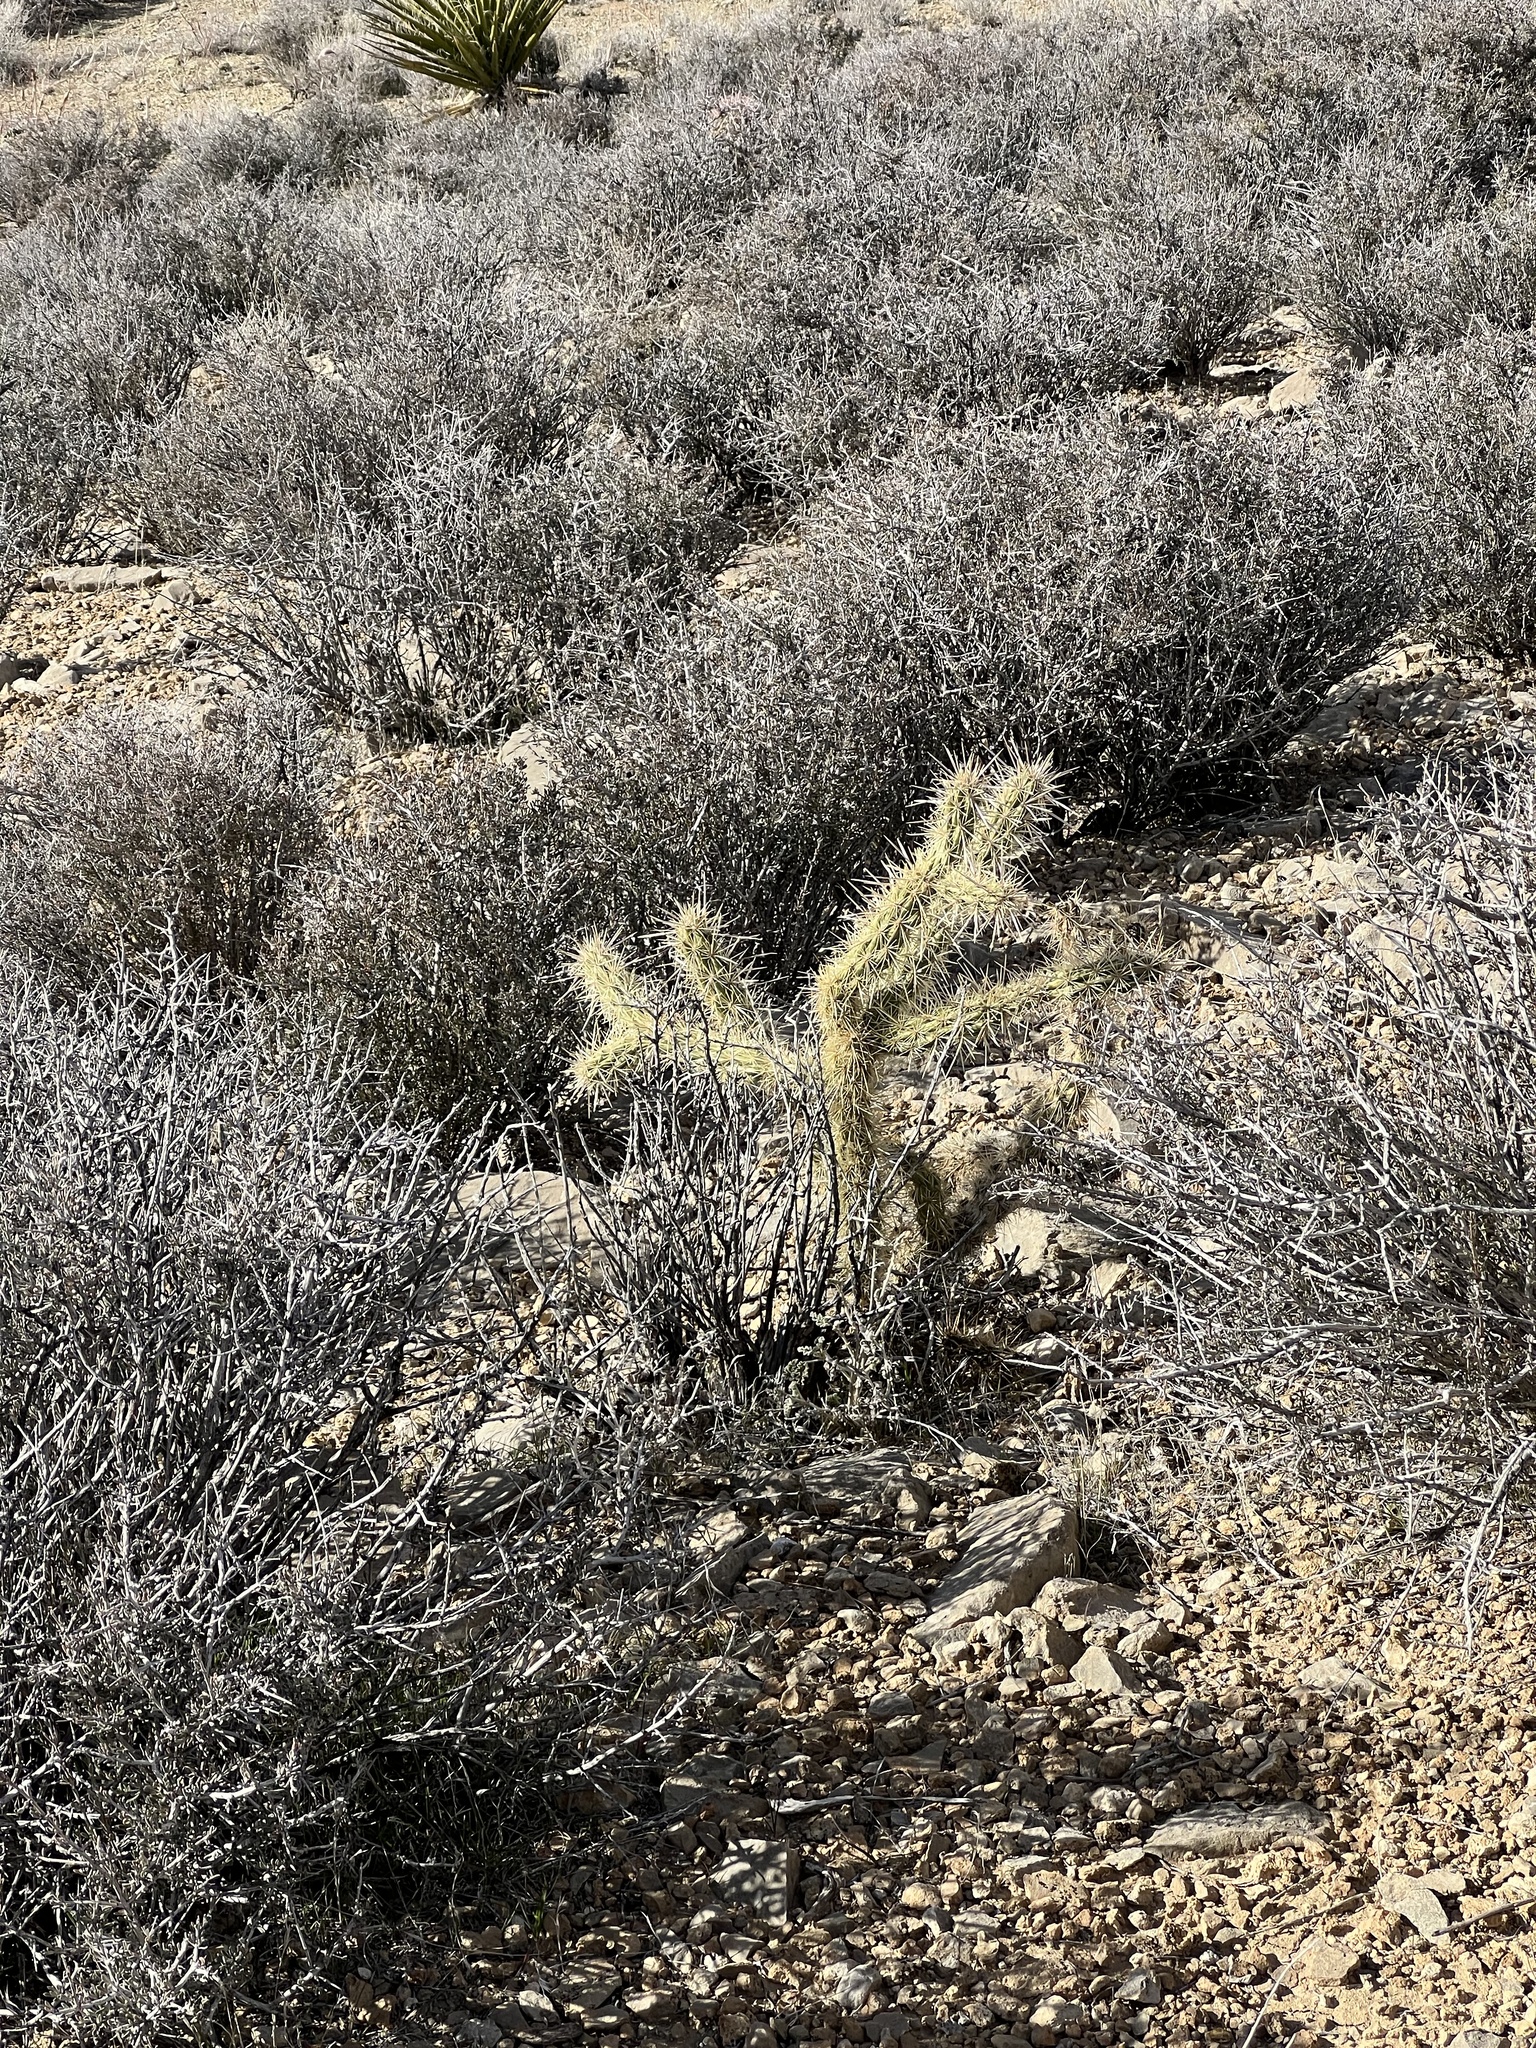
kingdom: Plantae
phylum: Tracheophyta
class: Magnoliopsida
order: Caryophyllales
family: Cactaceae
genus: Cylindropuntia
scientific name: Cylindropuntia acanthocarpa
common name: Buckhorn cholla
